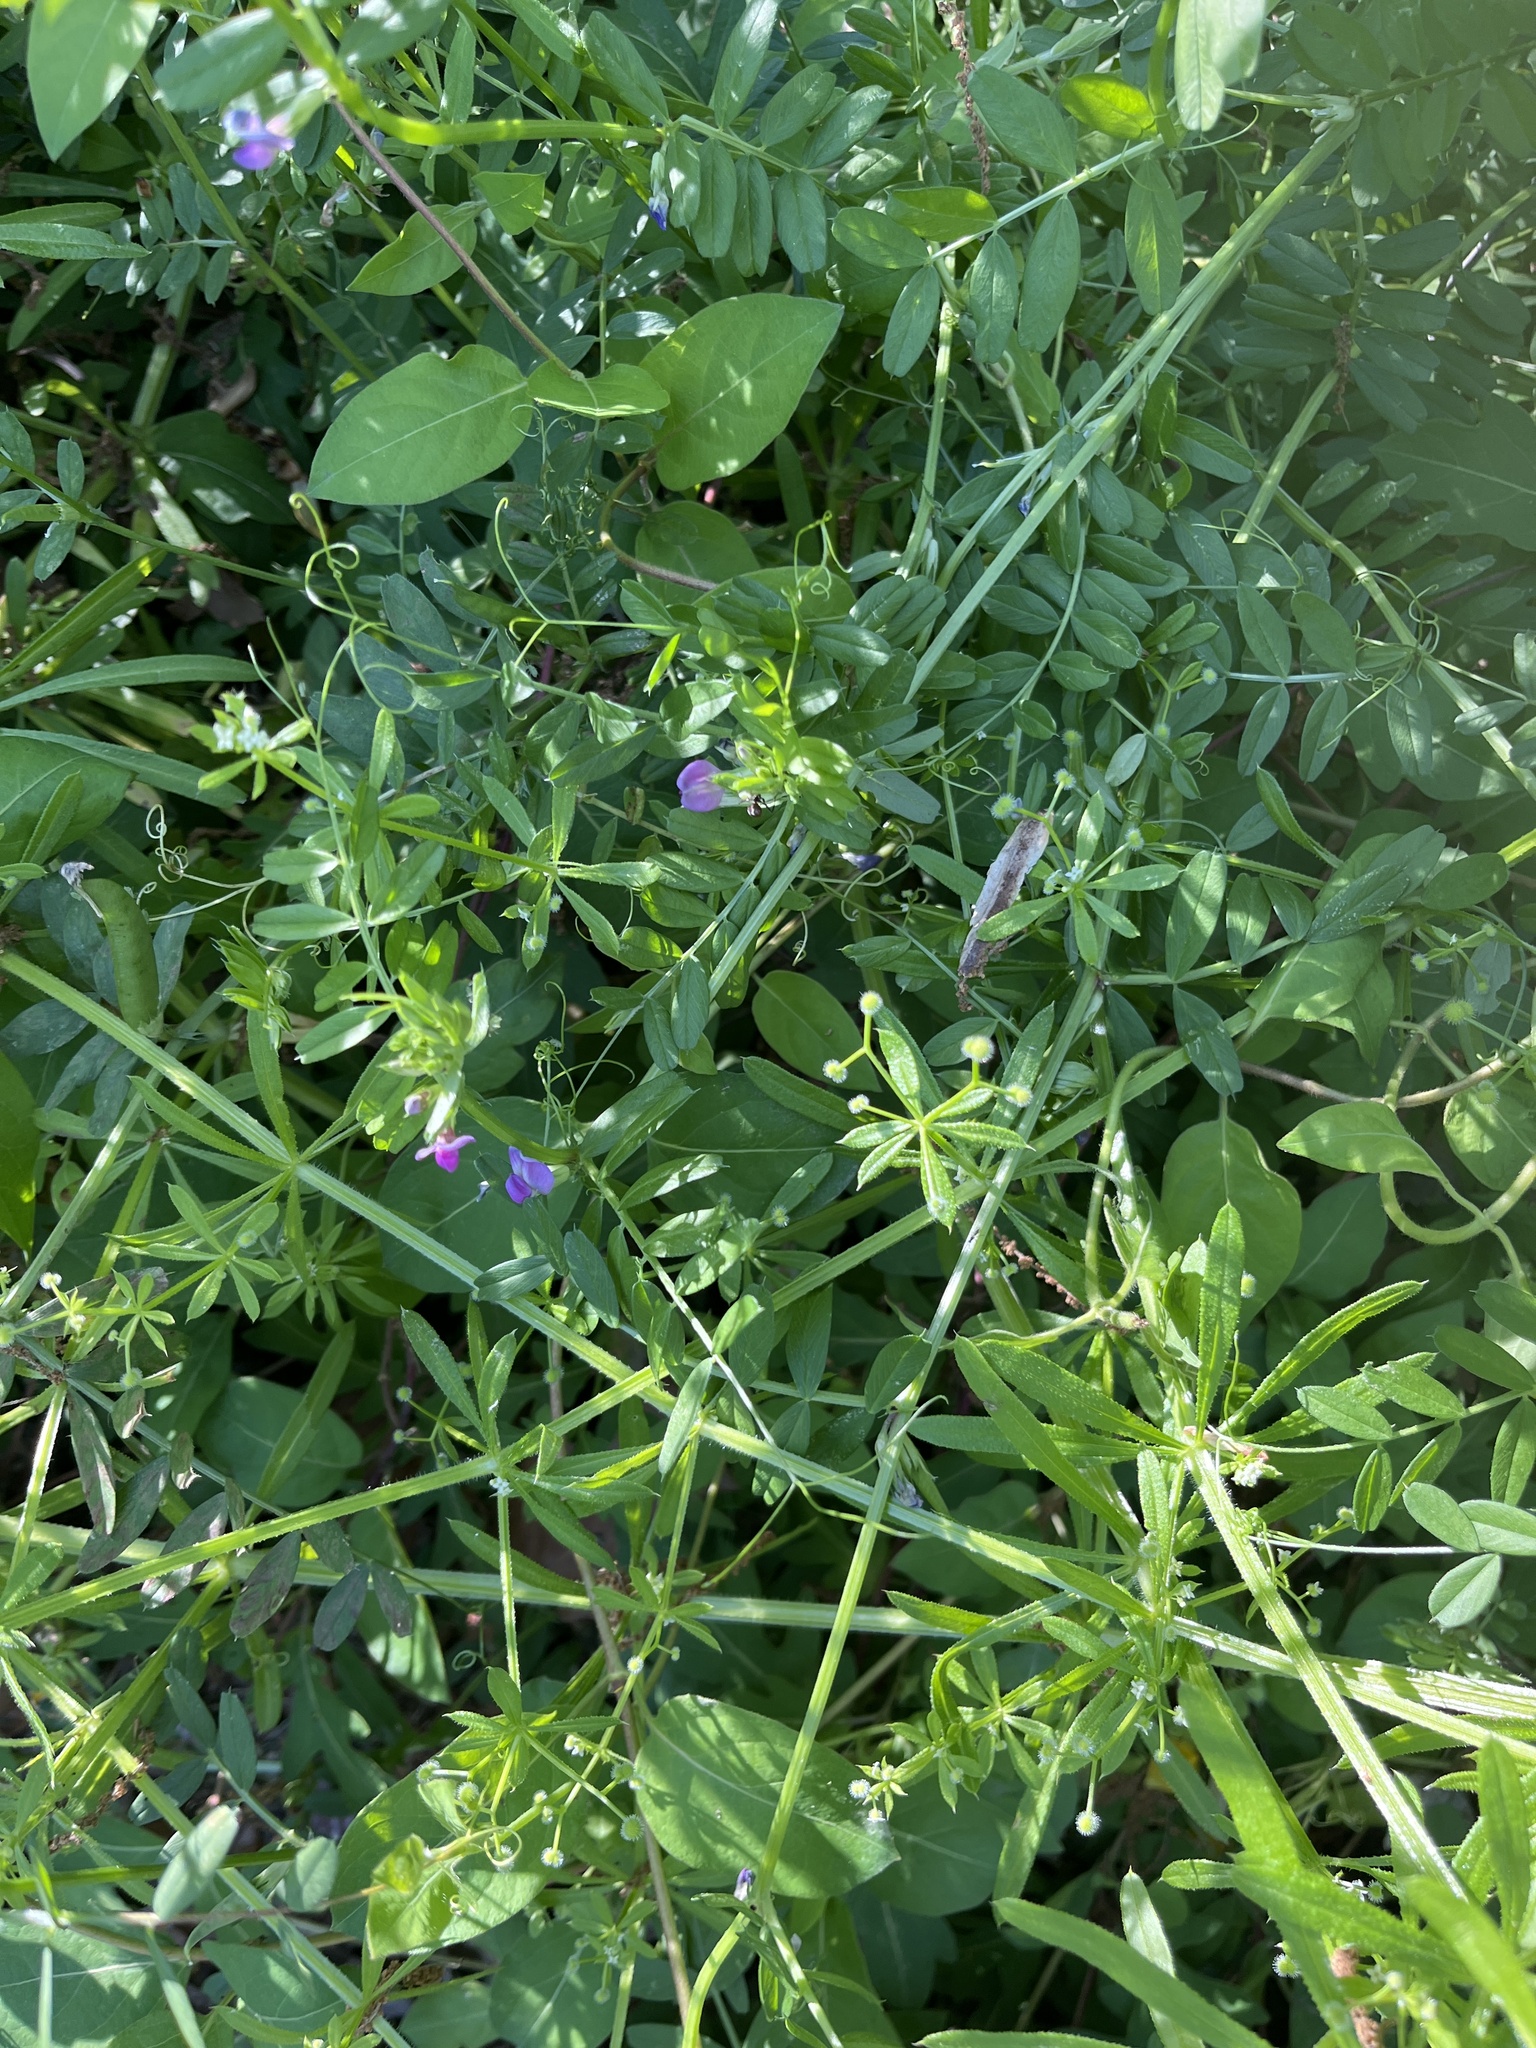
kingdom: Plantae
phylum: Tracheophyta
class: Magnoliopsida
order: Fabales
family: Fabaceae
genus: Vicia
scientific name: Vicia sativa
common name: Garden vetch
